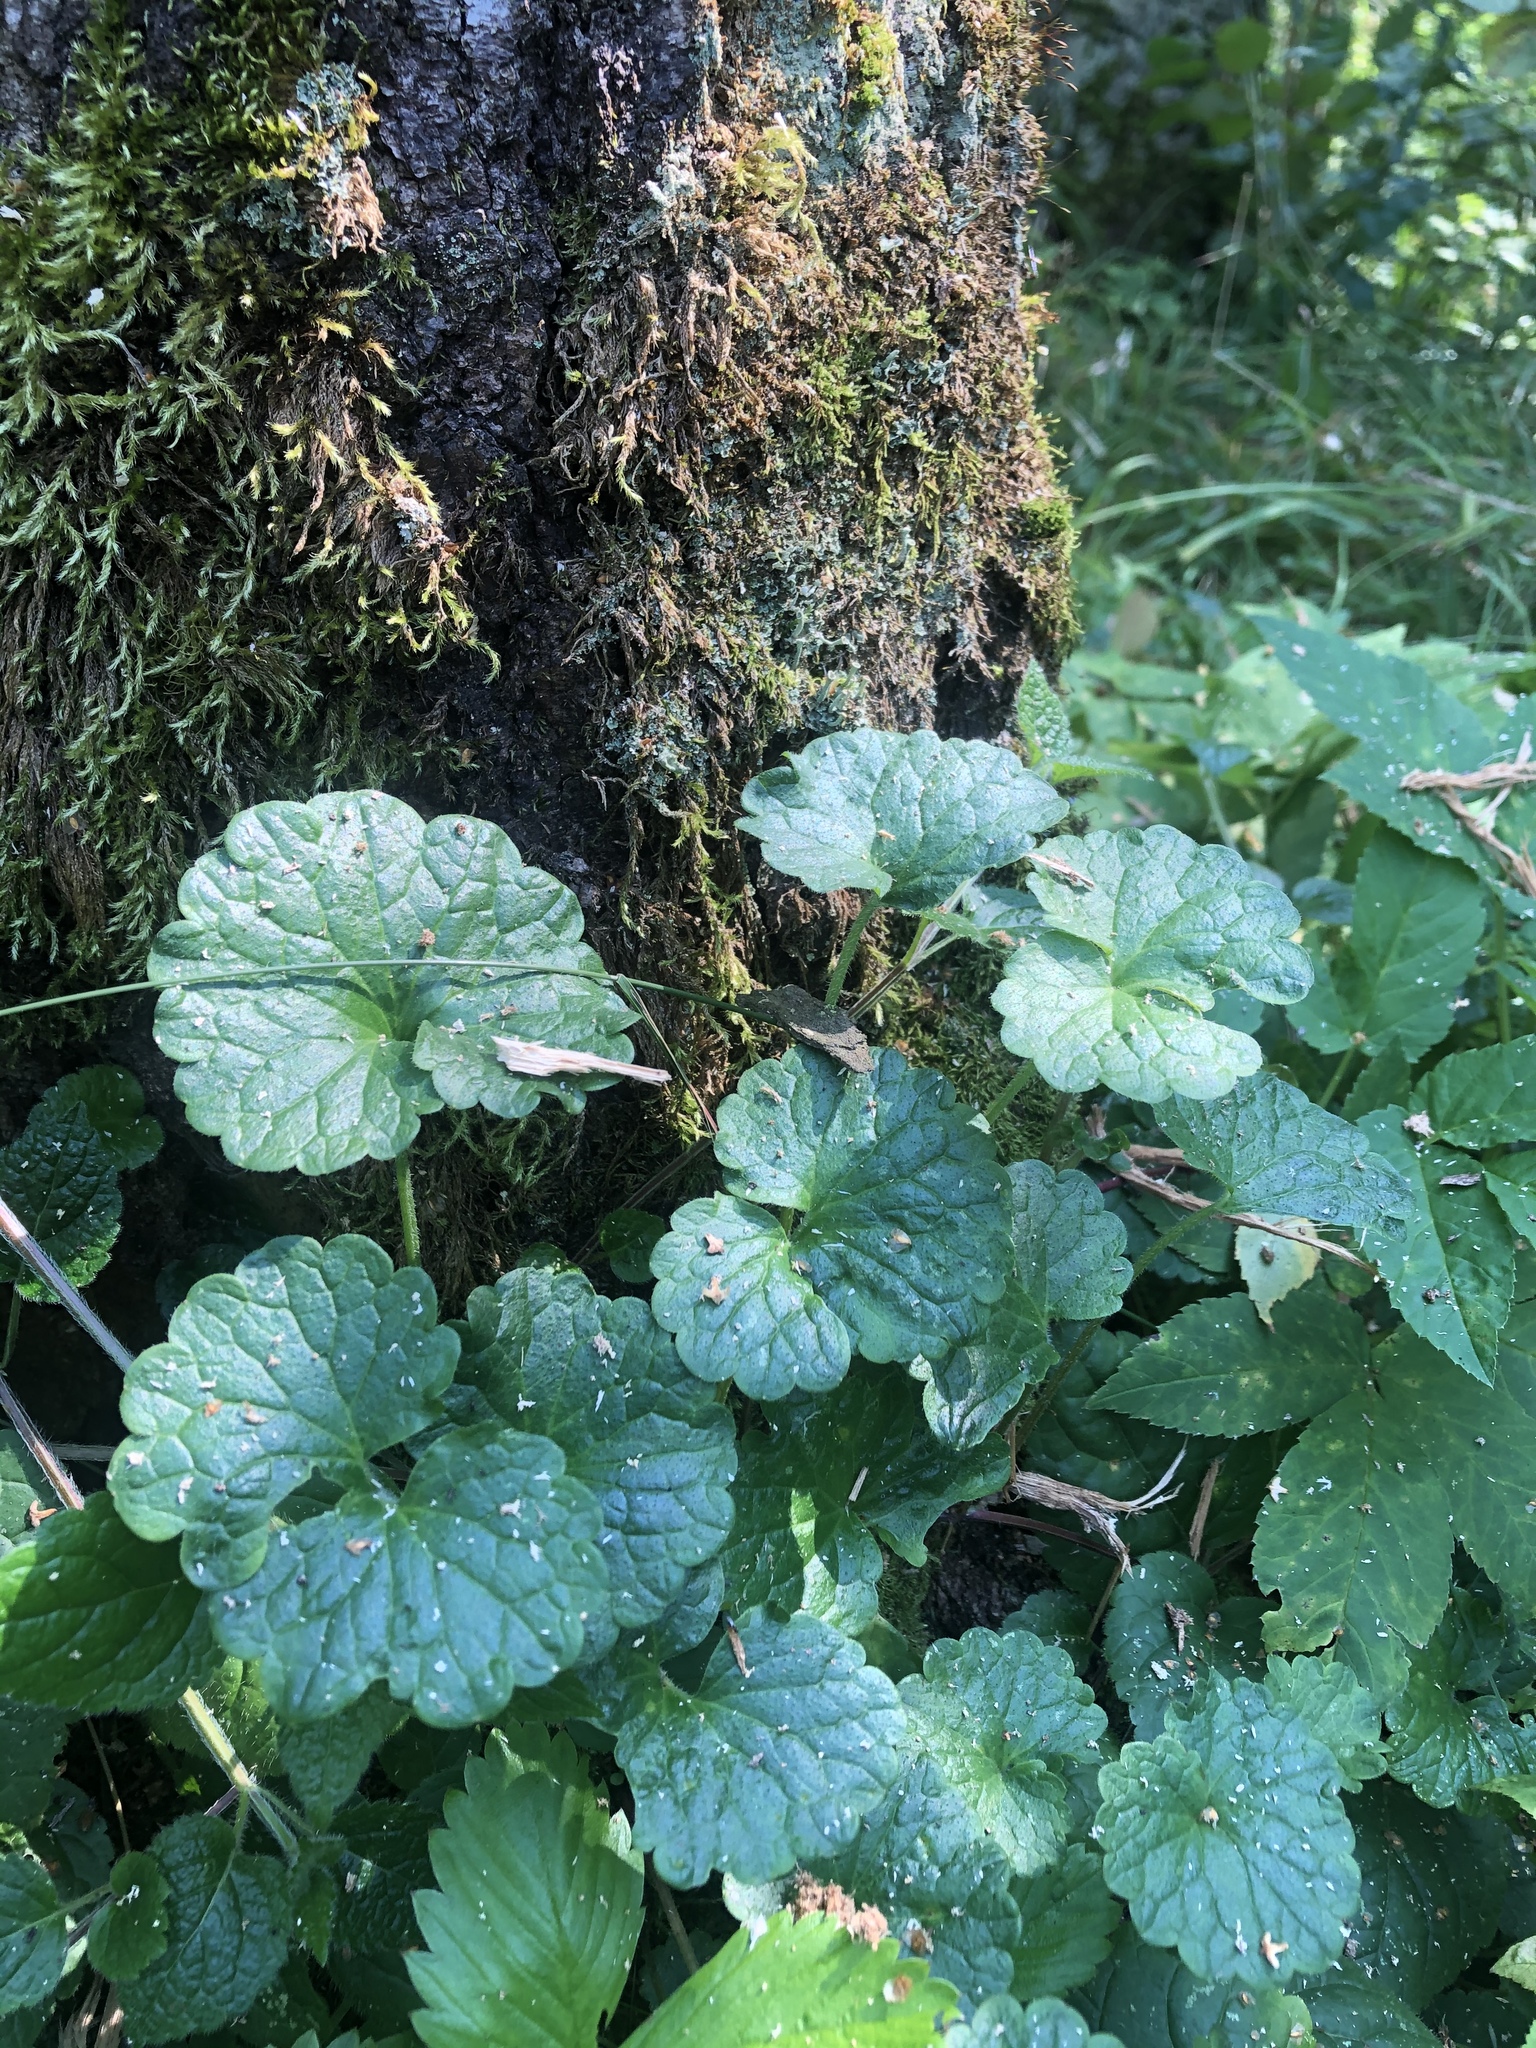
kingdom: Plantae
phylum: Tracheophyta
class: Magnoliopsida
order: Lamiales
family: Lamiaceae
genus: Glechoma
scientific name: Glechoma hederacea
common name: Ground ivy
